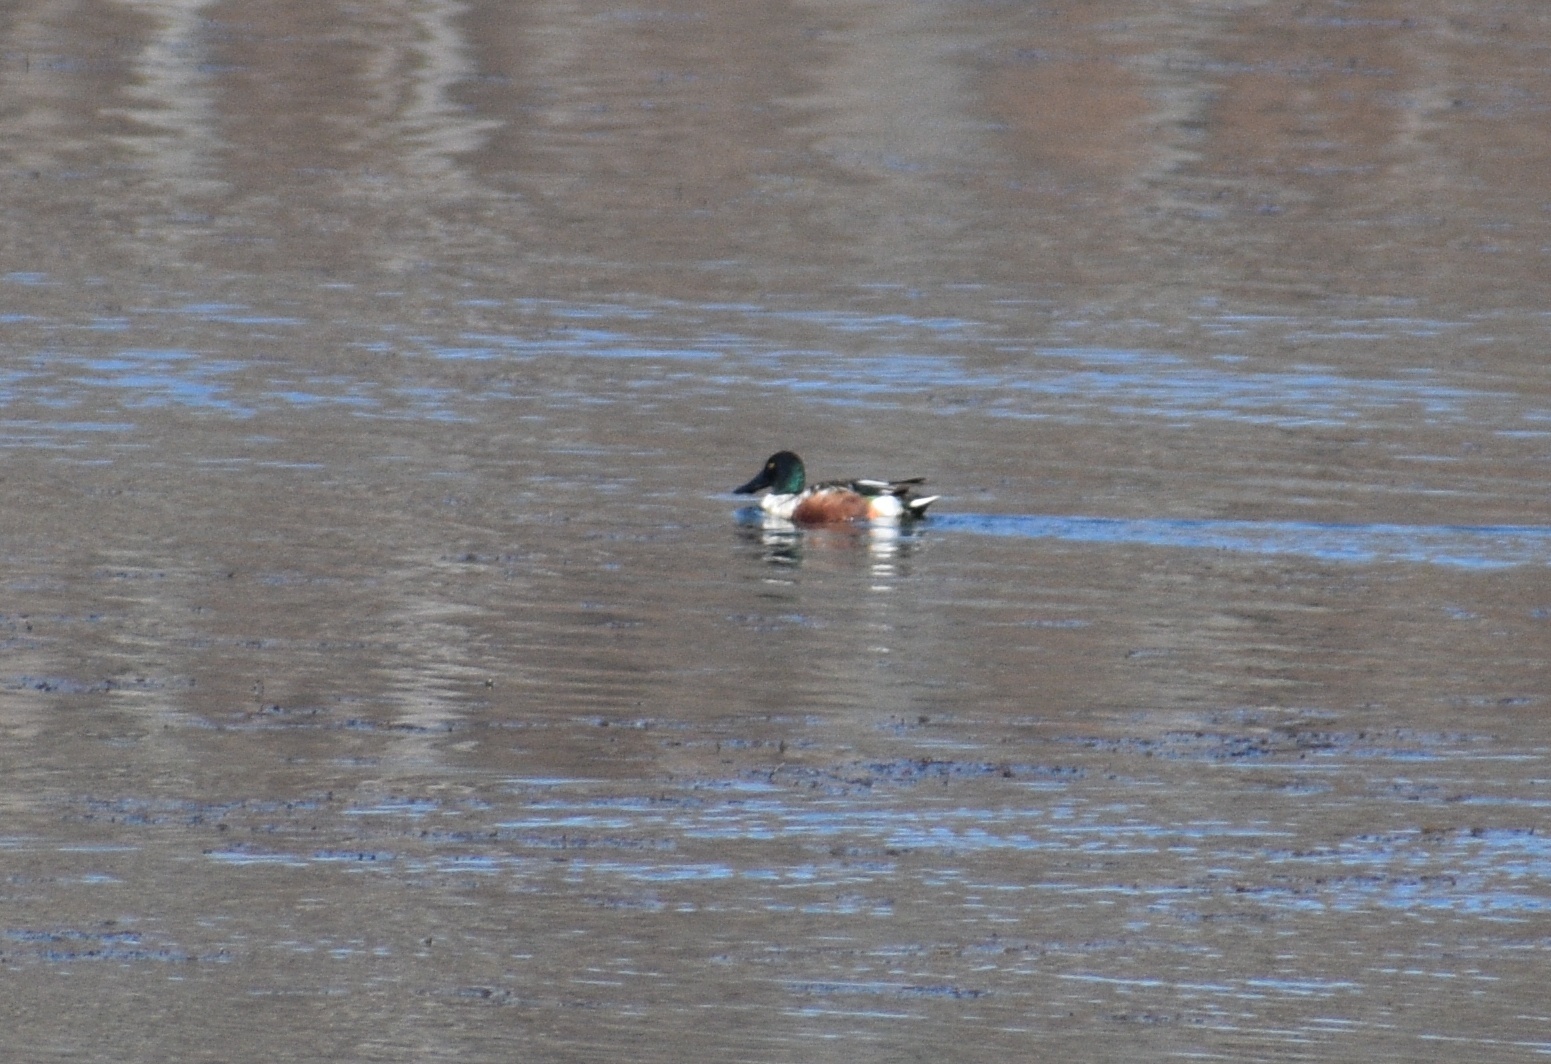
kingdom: Animalia
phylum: Chordata
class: Aves
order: Anseriformes
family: Anatidae
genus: Spatula
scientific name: Spatula clypeata
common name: Northern shoveler
